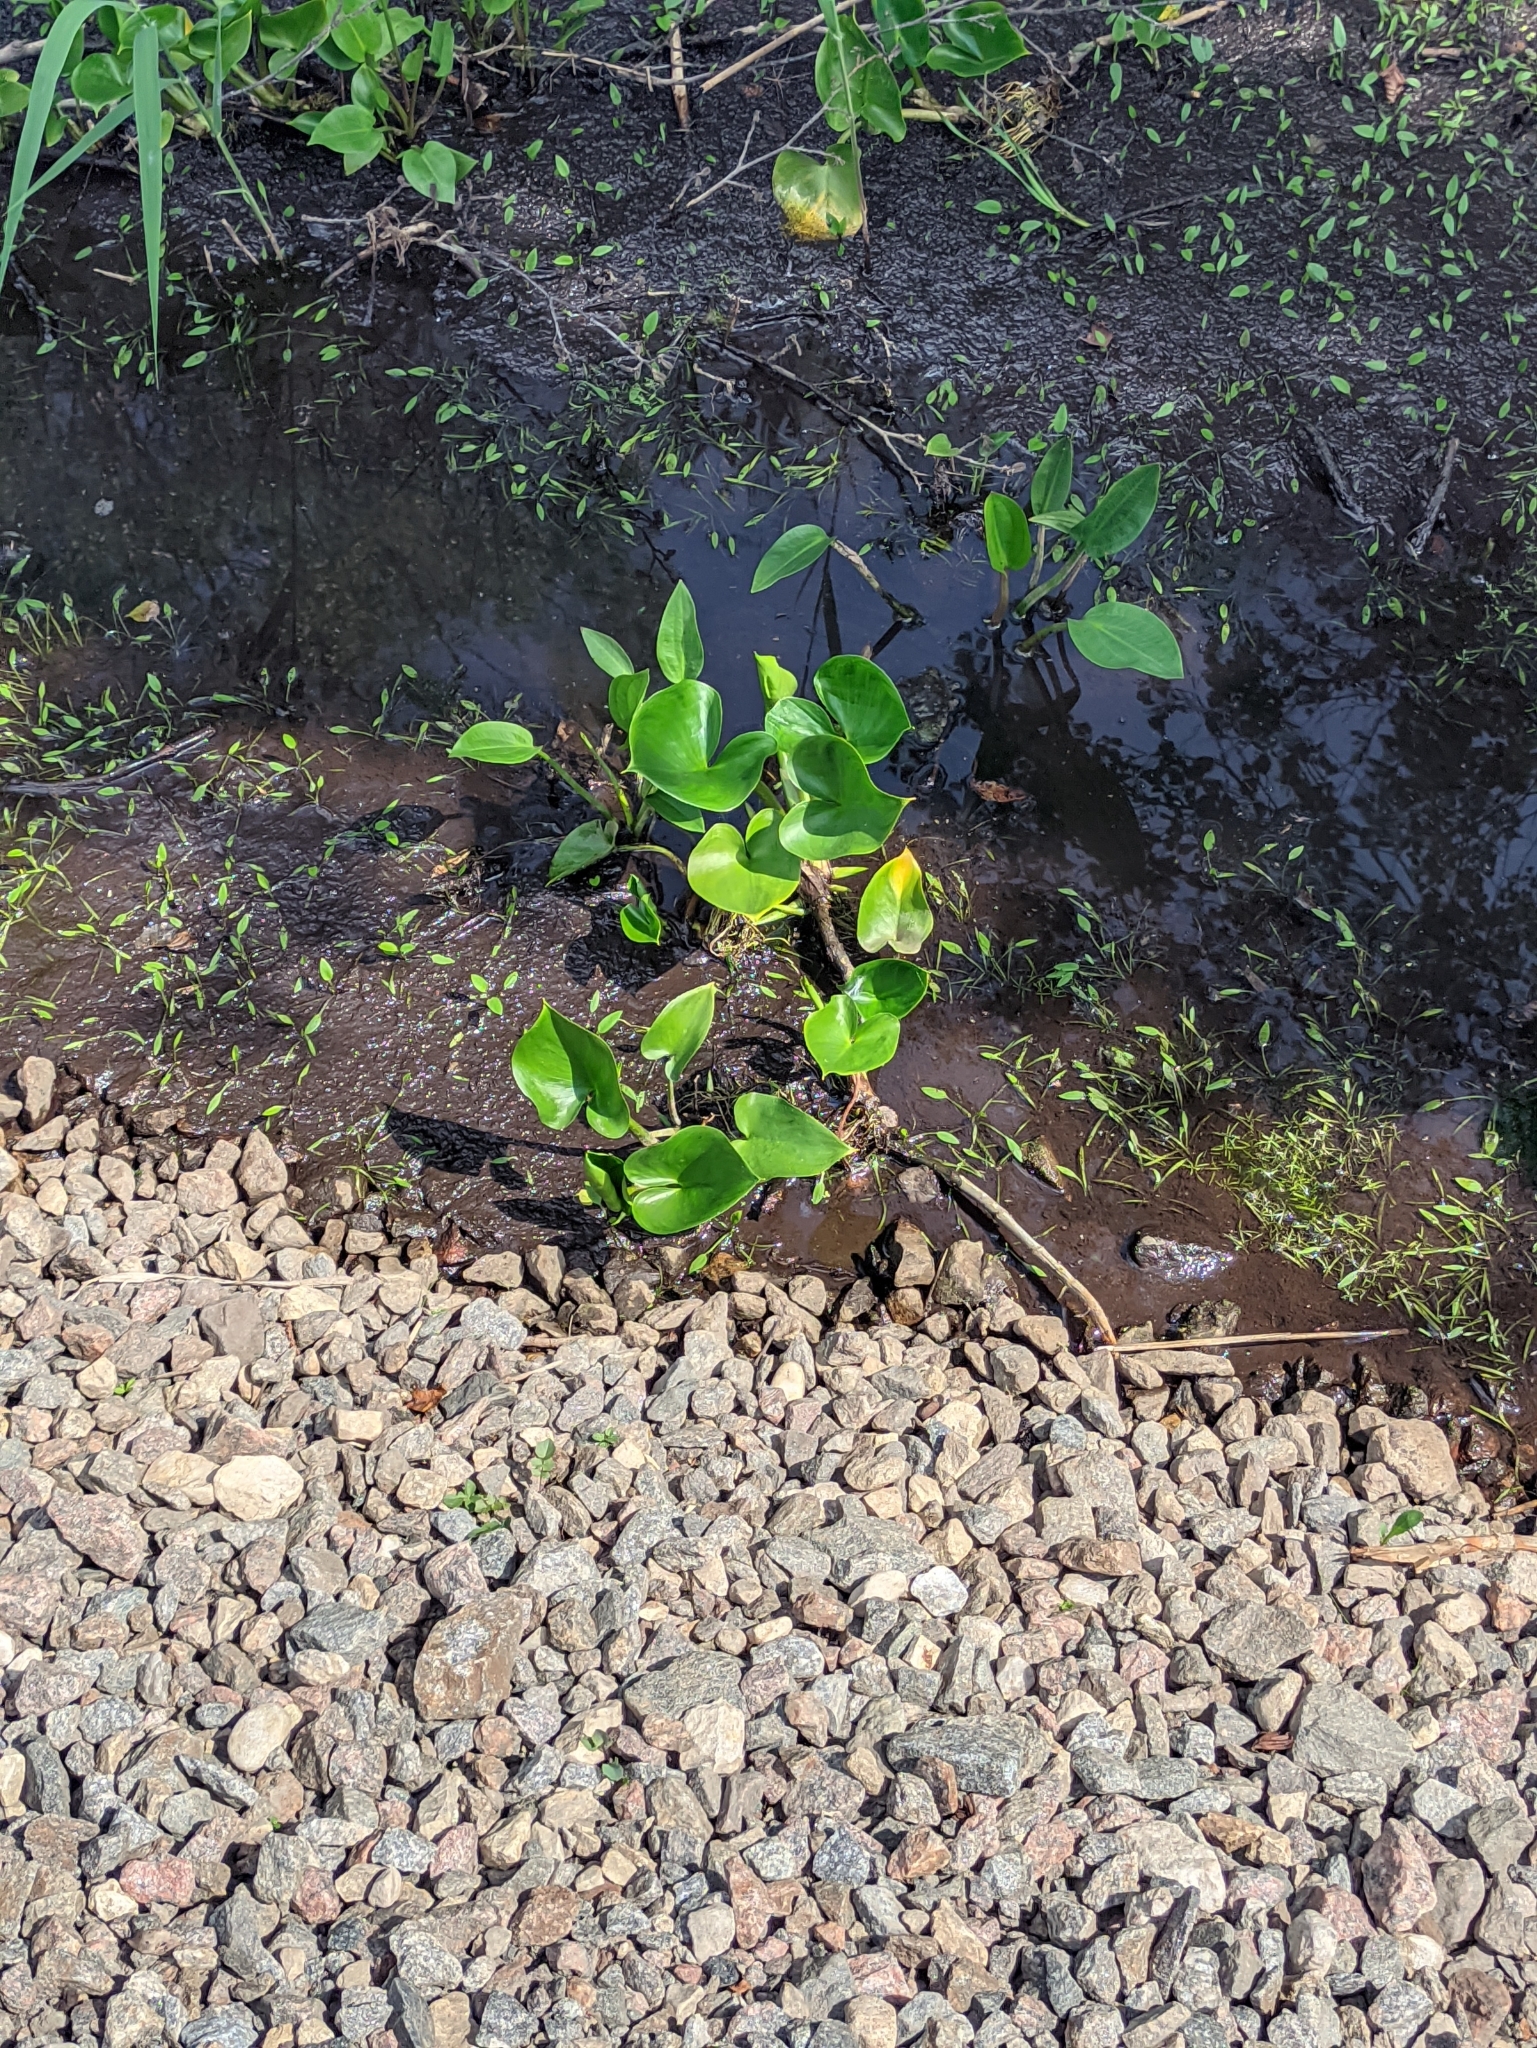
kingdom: Plantae
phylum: Tracheophyta
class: Liliopsida
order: Alismatales
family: Araceae
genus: Calla
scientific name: Calla palustris
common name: Bog arum
